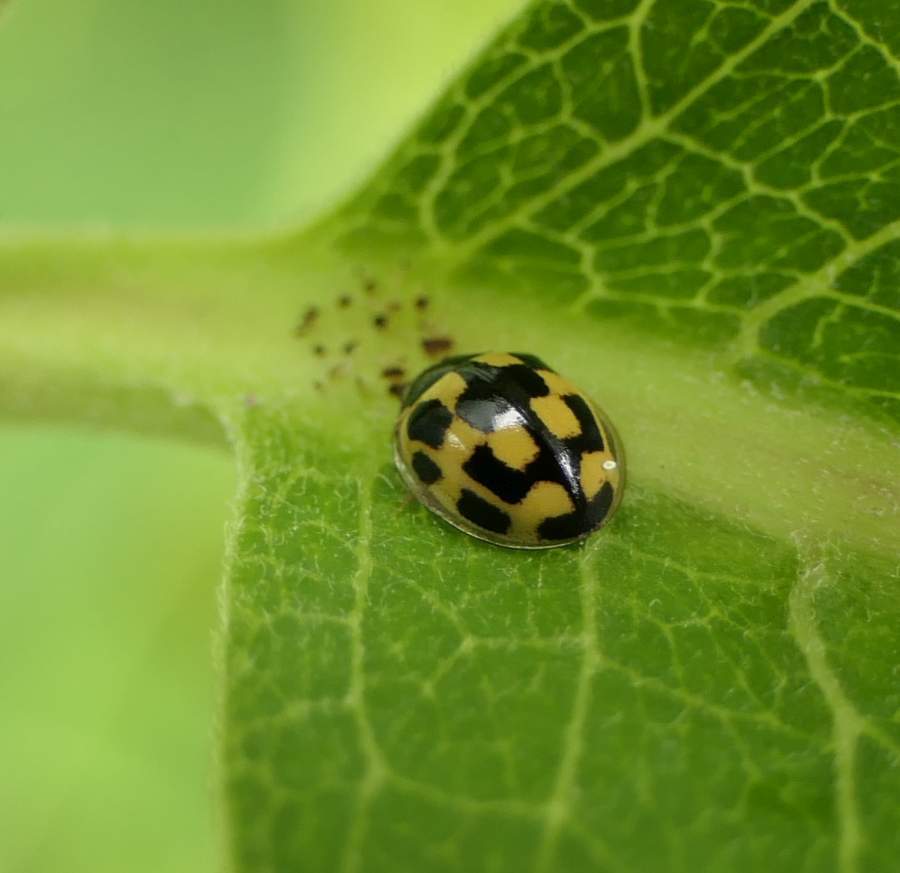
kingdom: Animalia
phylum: Arthropoda
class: Insecta
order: Coleoptera
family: Coccinellidae
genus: Propylaea
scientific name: Propylaea quatuordecimpunctata
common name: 14-spotted ladybird beetle
